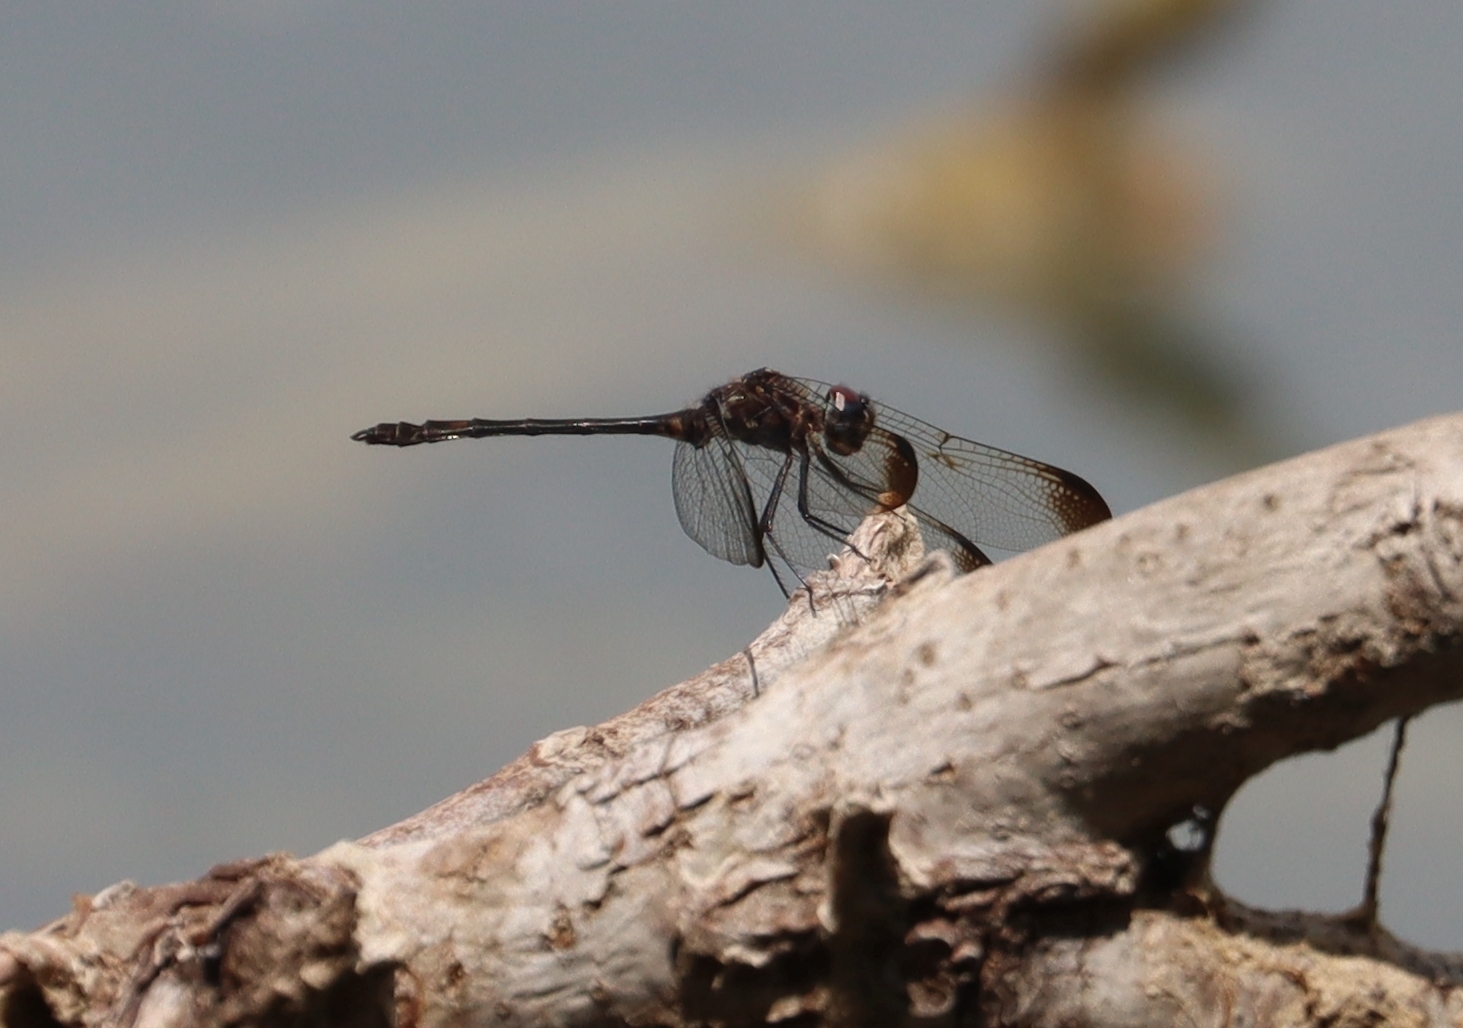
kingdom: Animalia
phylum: Arthropoda
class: Insecta
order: Odonata
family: Libellulidae
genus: Dythemis
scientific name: Dythemis velox
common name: Swift setwing
